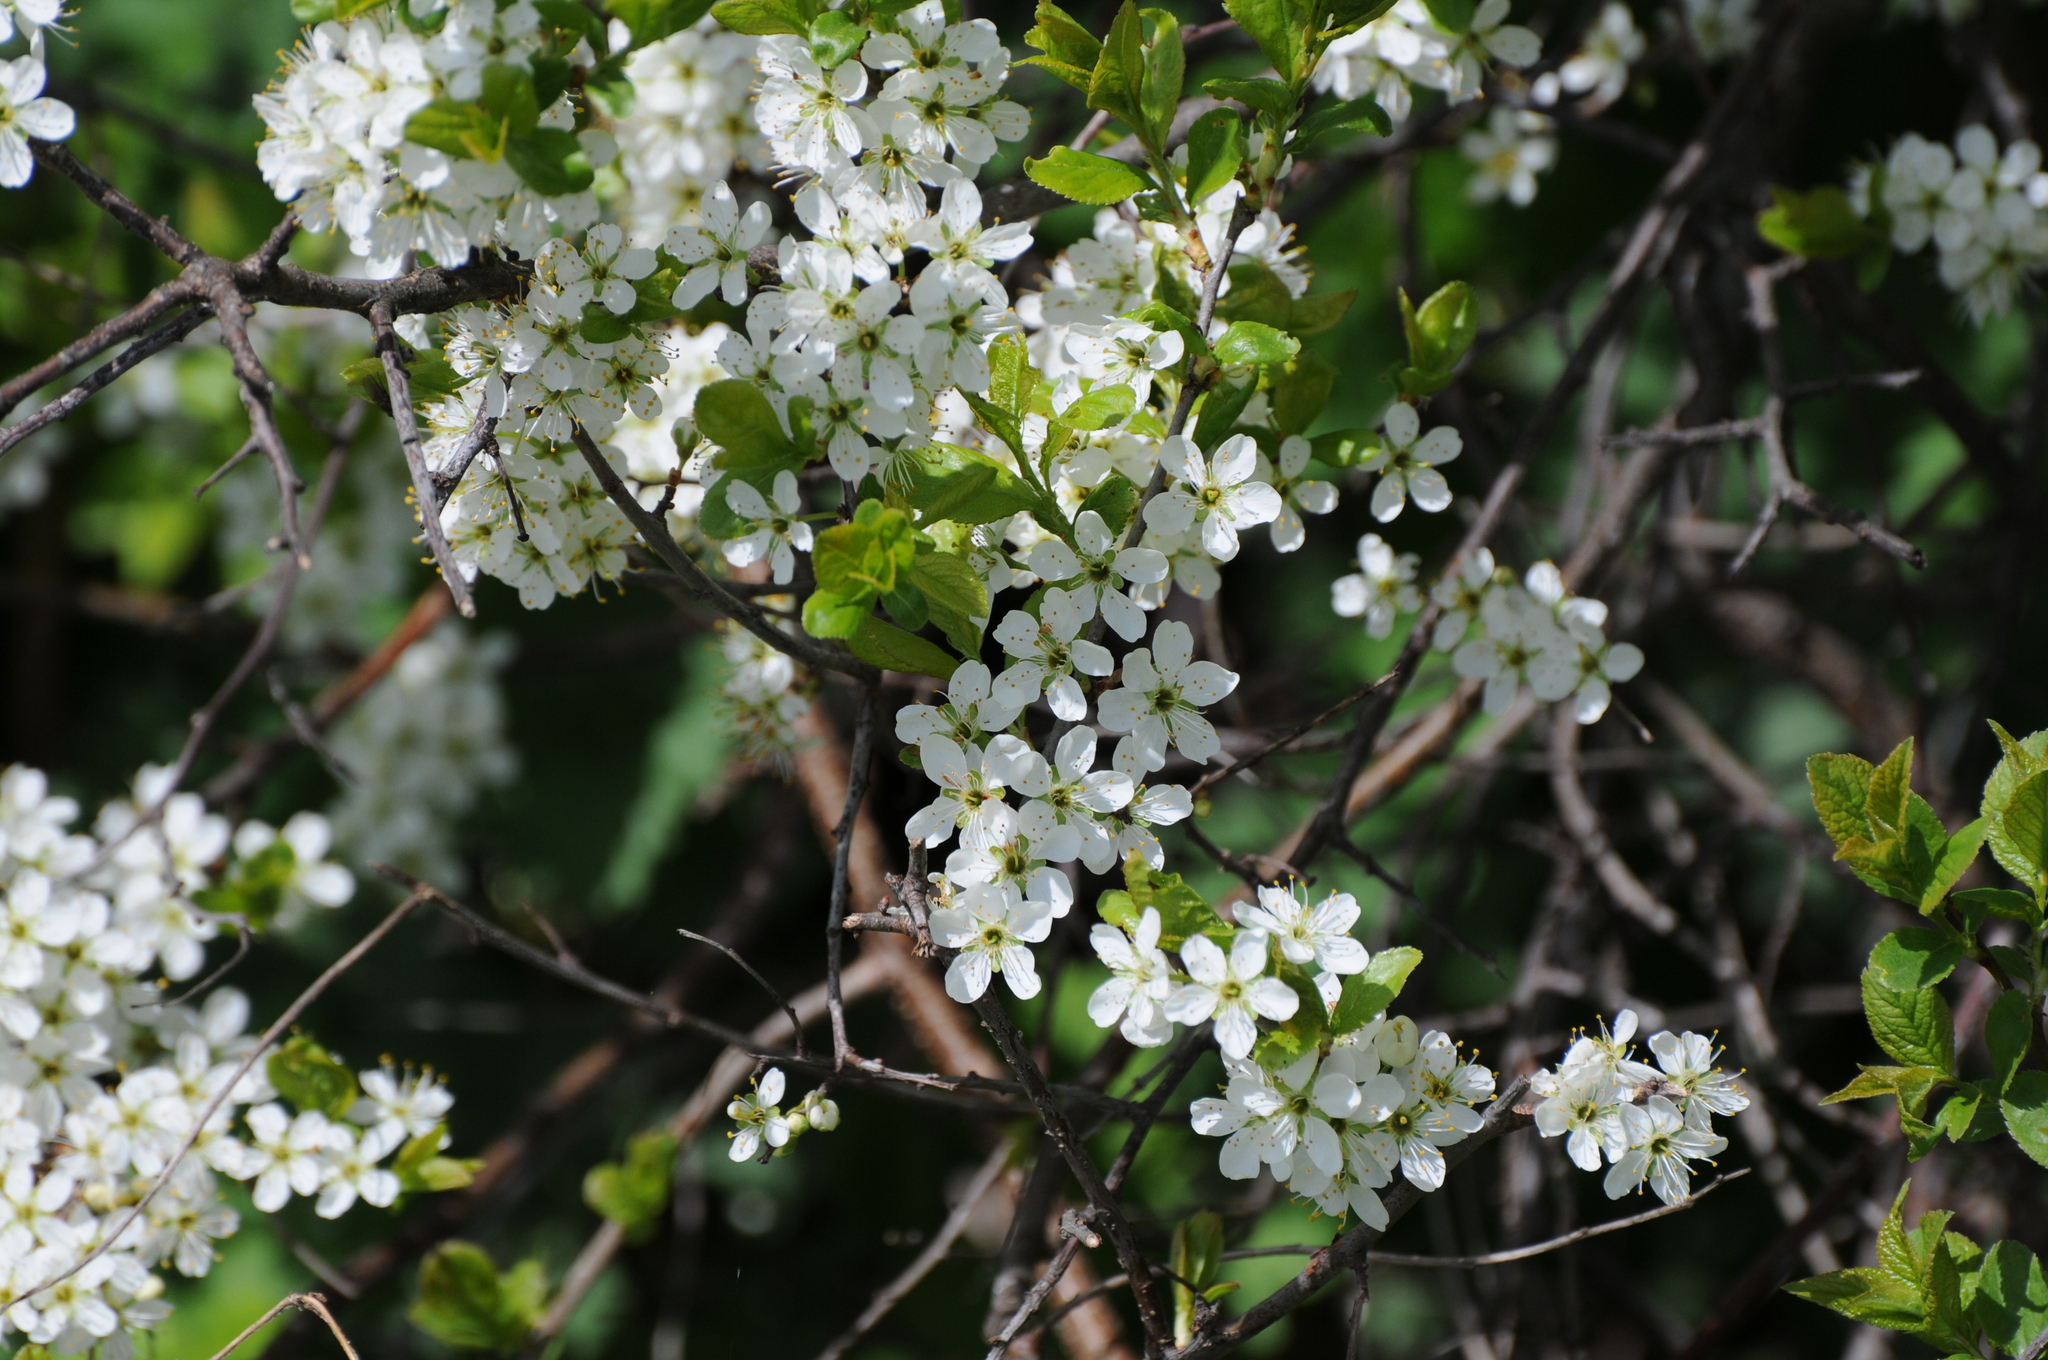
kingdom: Plantae
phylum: Tracheophyta
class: Magnoliopsida
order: Rosales
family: Rosaceae
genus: Prunus
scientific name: Prunus spinosa
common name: Blackthorn
